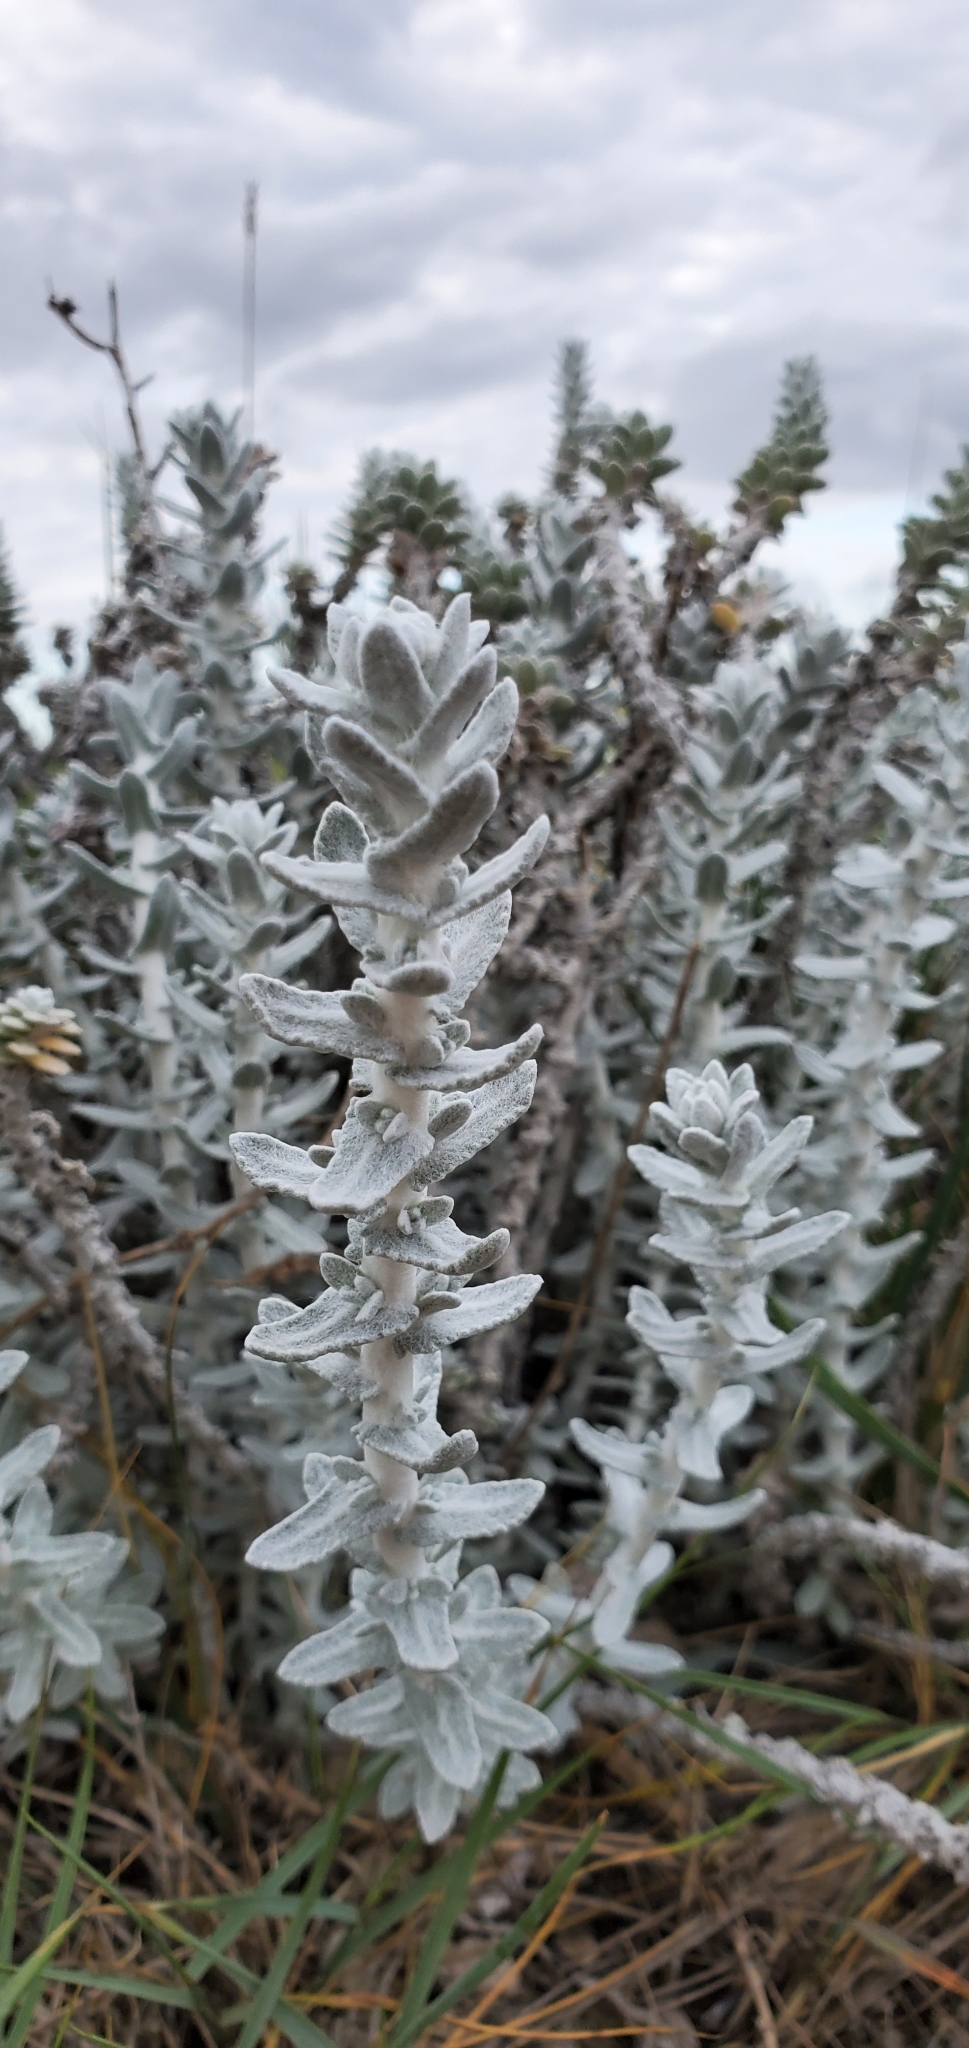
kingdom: Plantae
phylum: Tracheophyta
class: Magnoliopsida
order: Asterales
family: Asteraceae
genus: Achillea
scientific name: Achillea maritima
